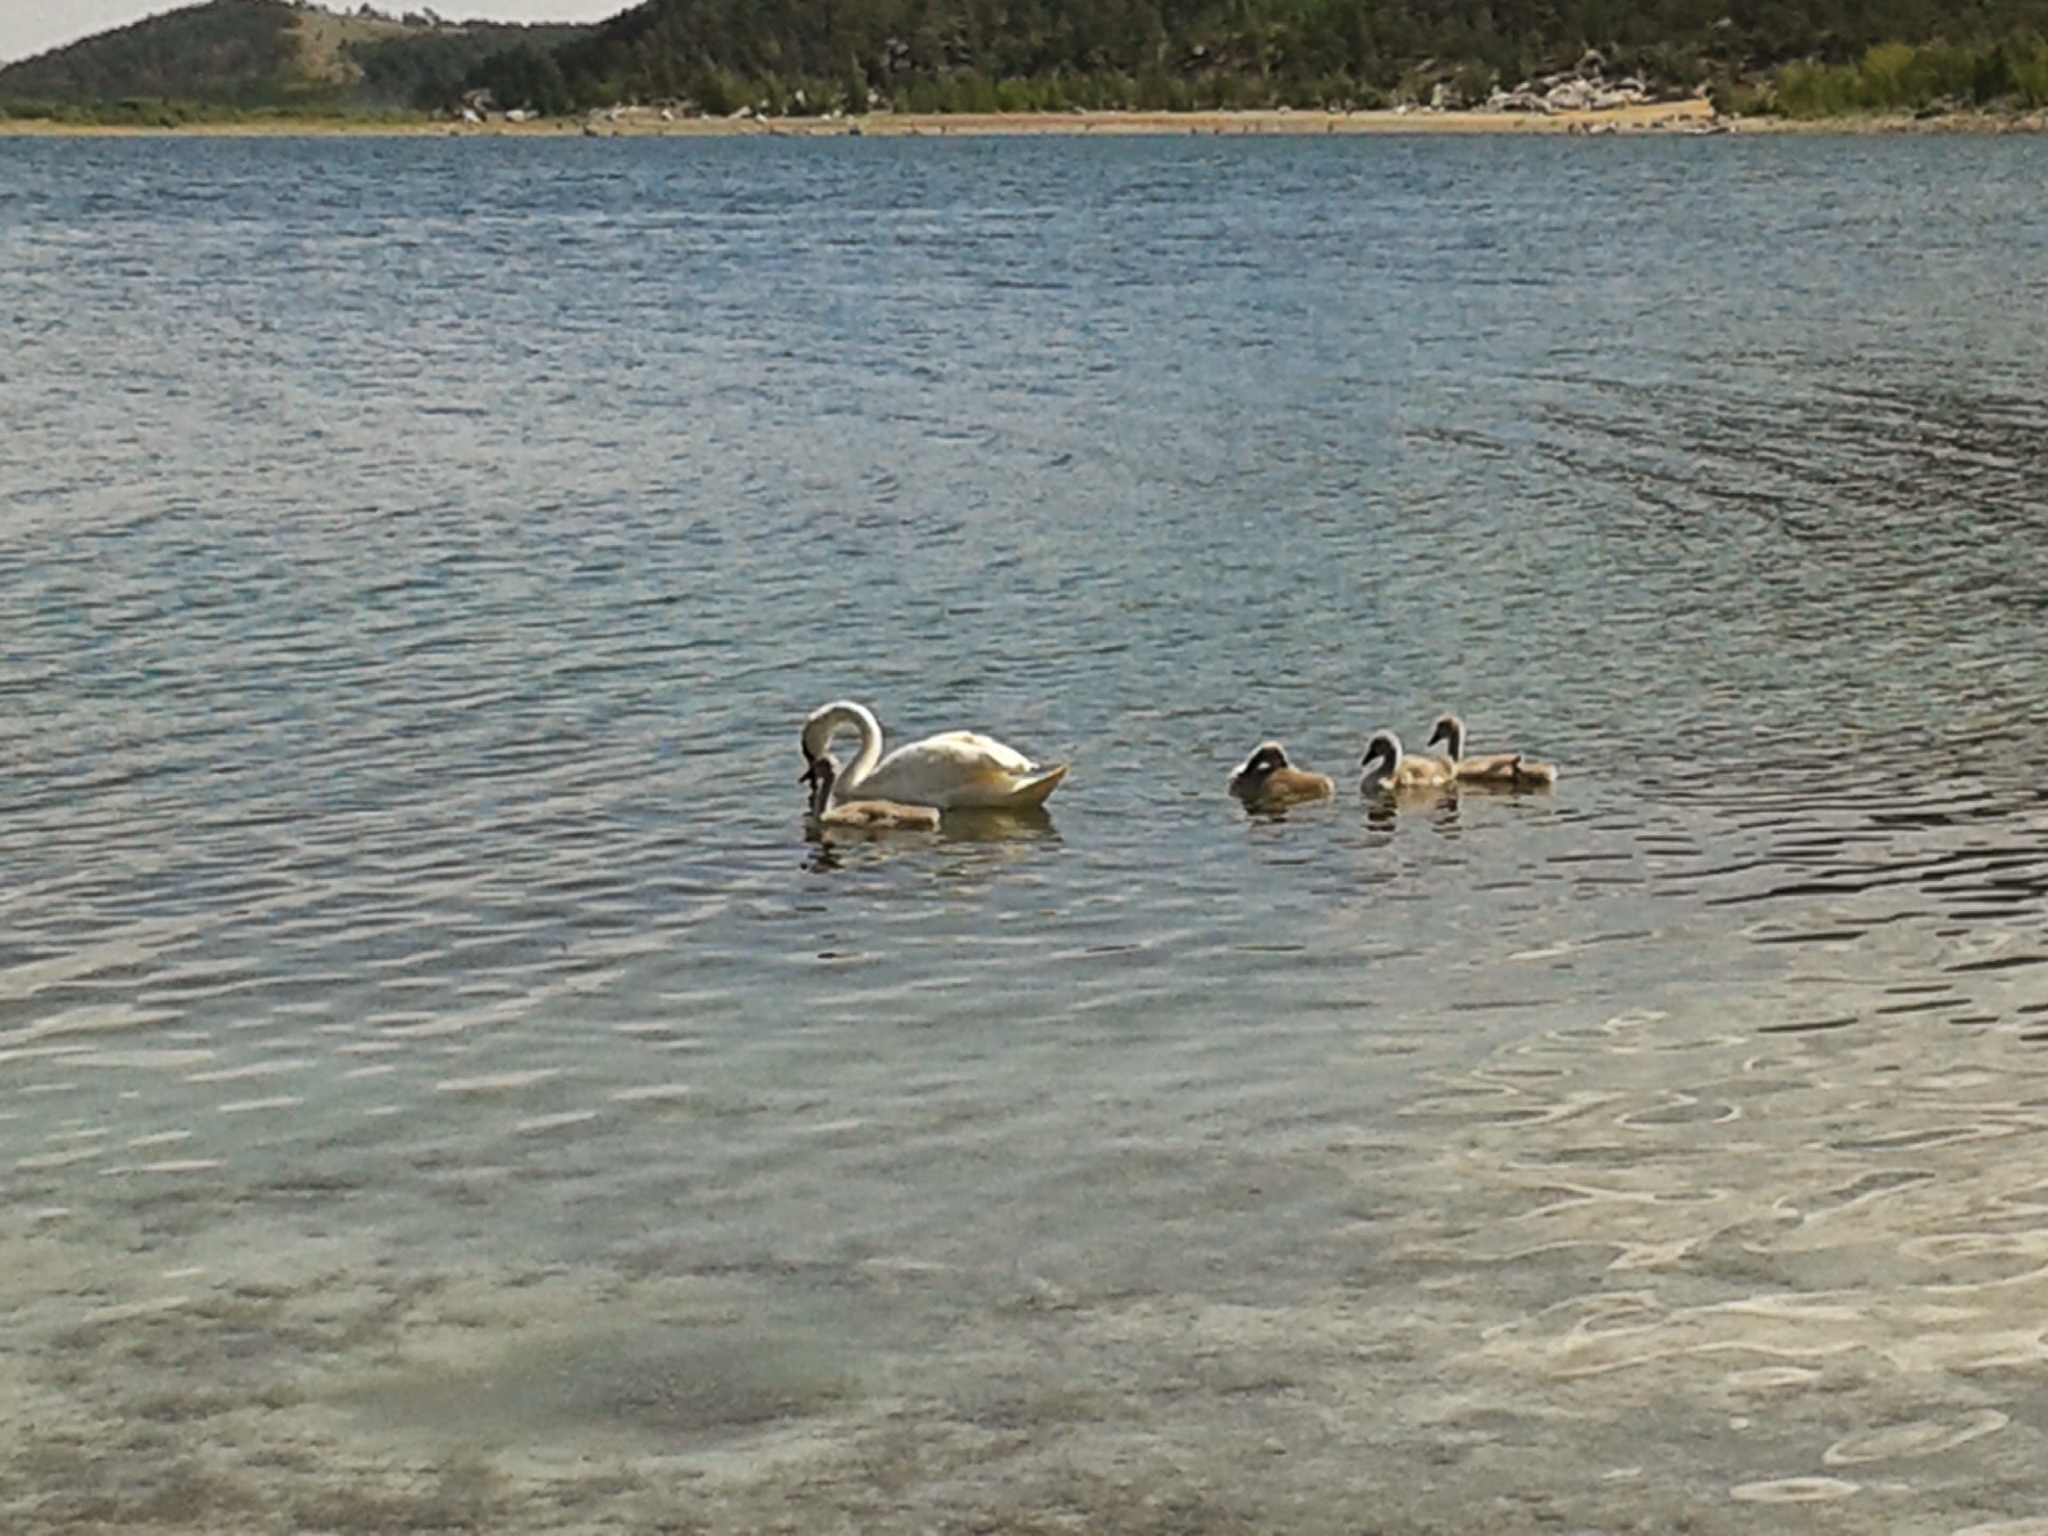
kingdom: Animalia
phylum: Chordata
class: Aves
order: Anseriformes
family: Anatidae
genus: Cygnus
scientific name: Cygnus olor
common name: Mute swan
